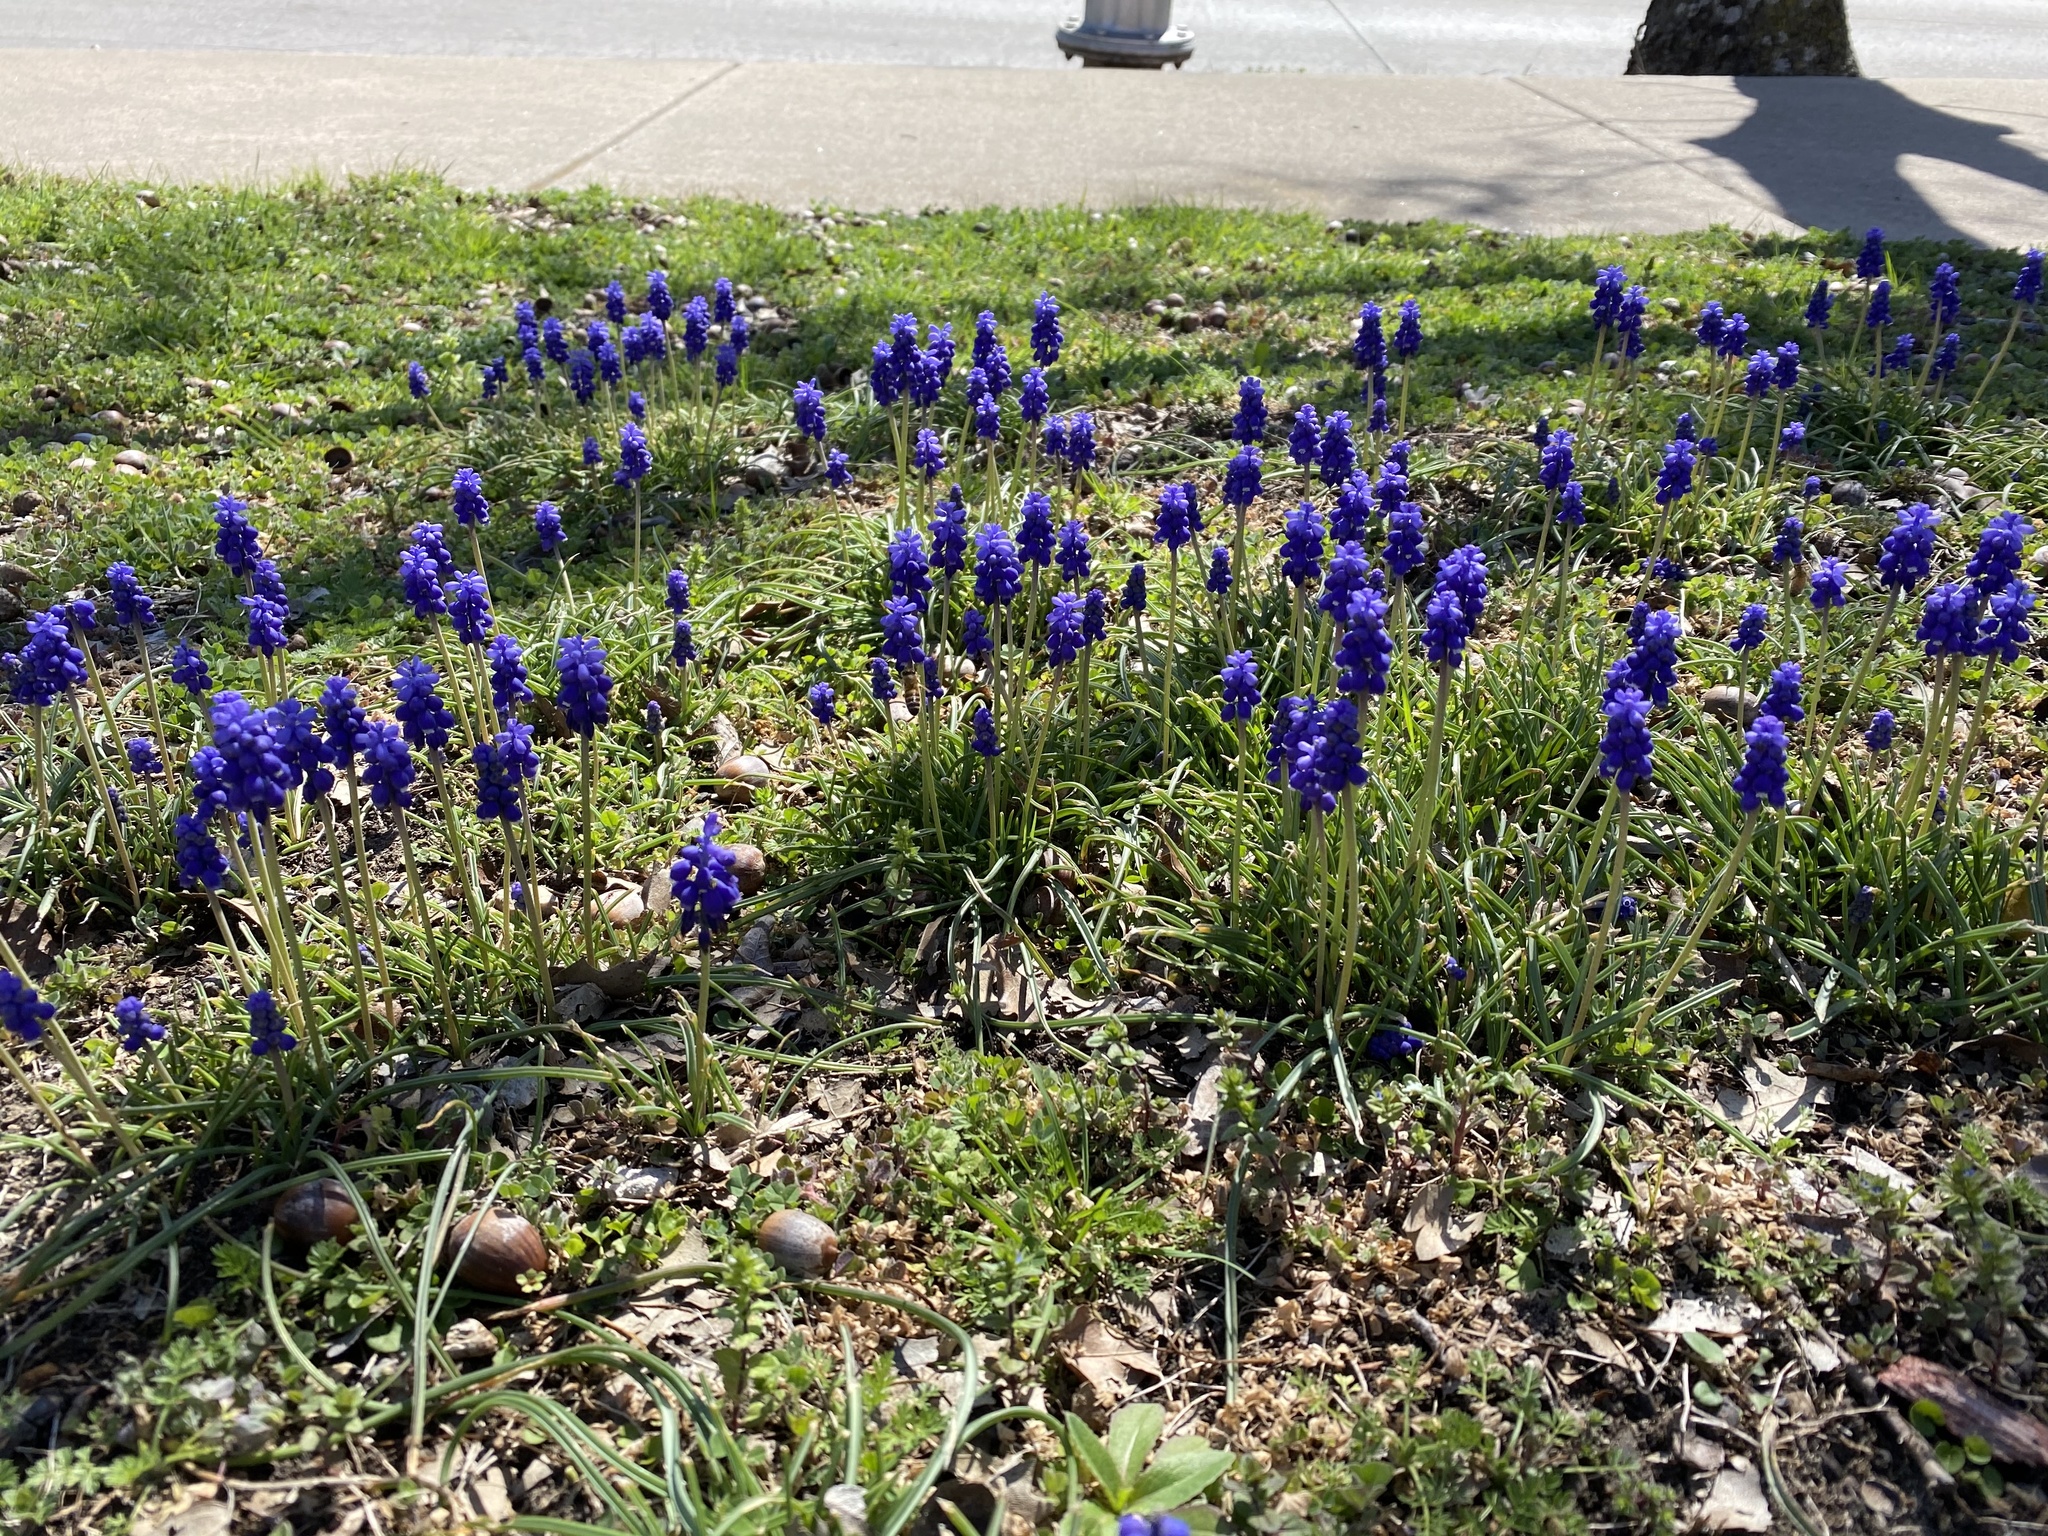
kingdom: Plantae
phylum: Tracheophyta
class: Liliopsida
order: Asparagales
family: Asparagaceae
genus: Muscari
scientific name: Muscari armeniacum
